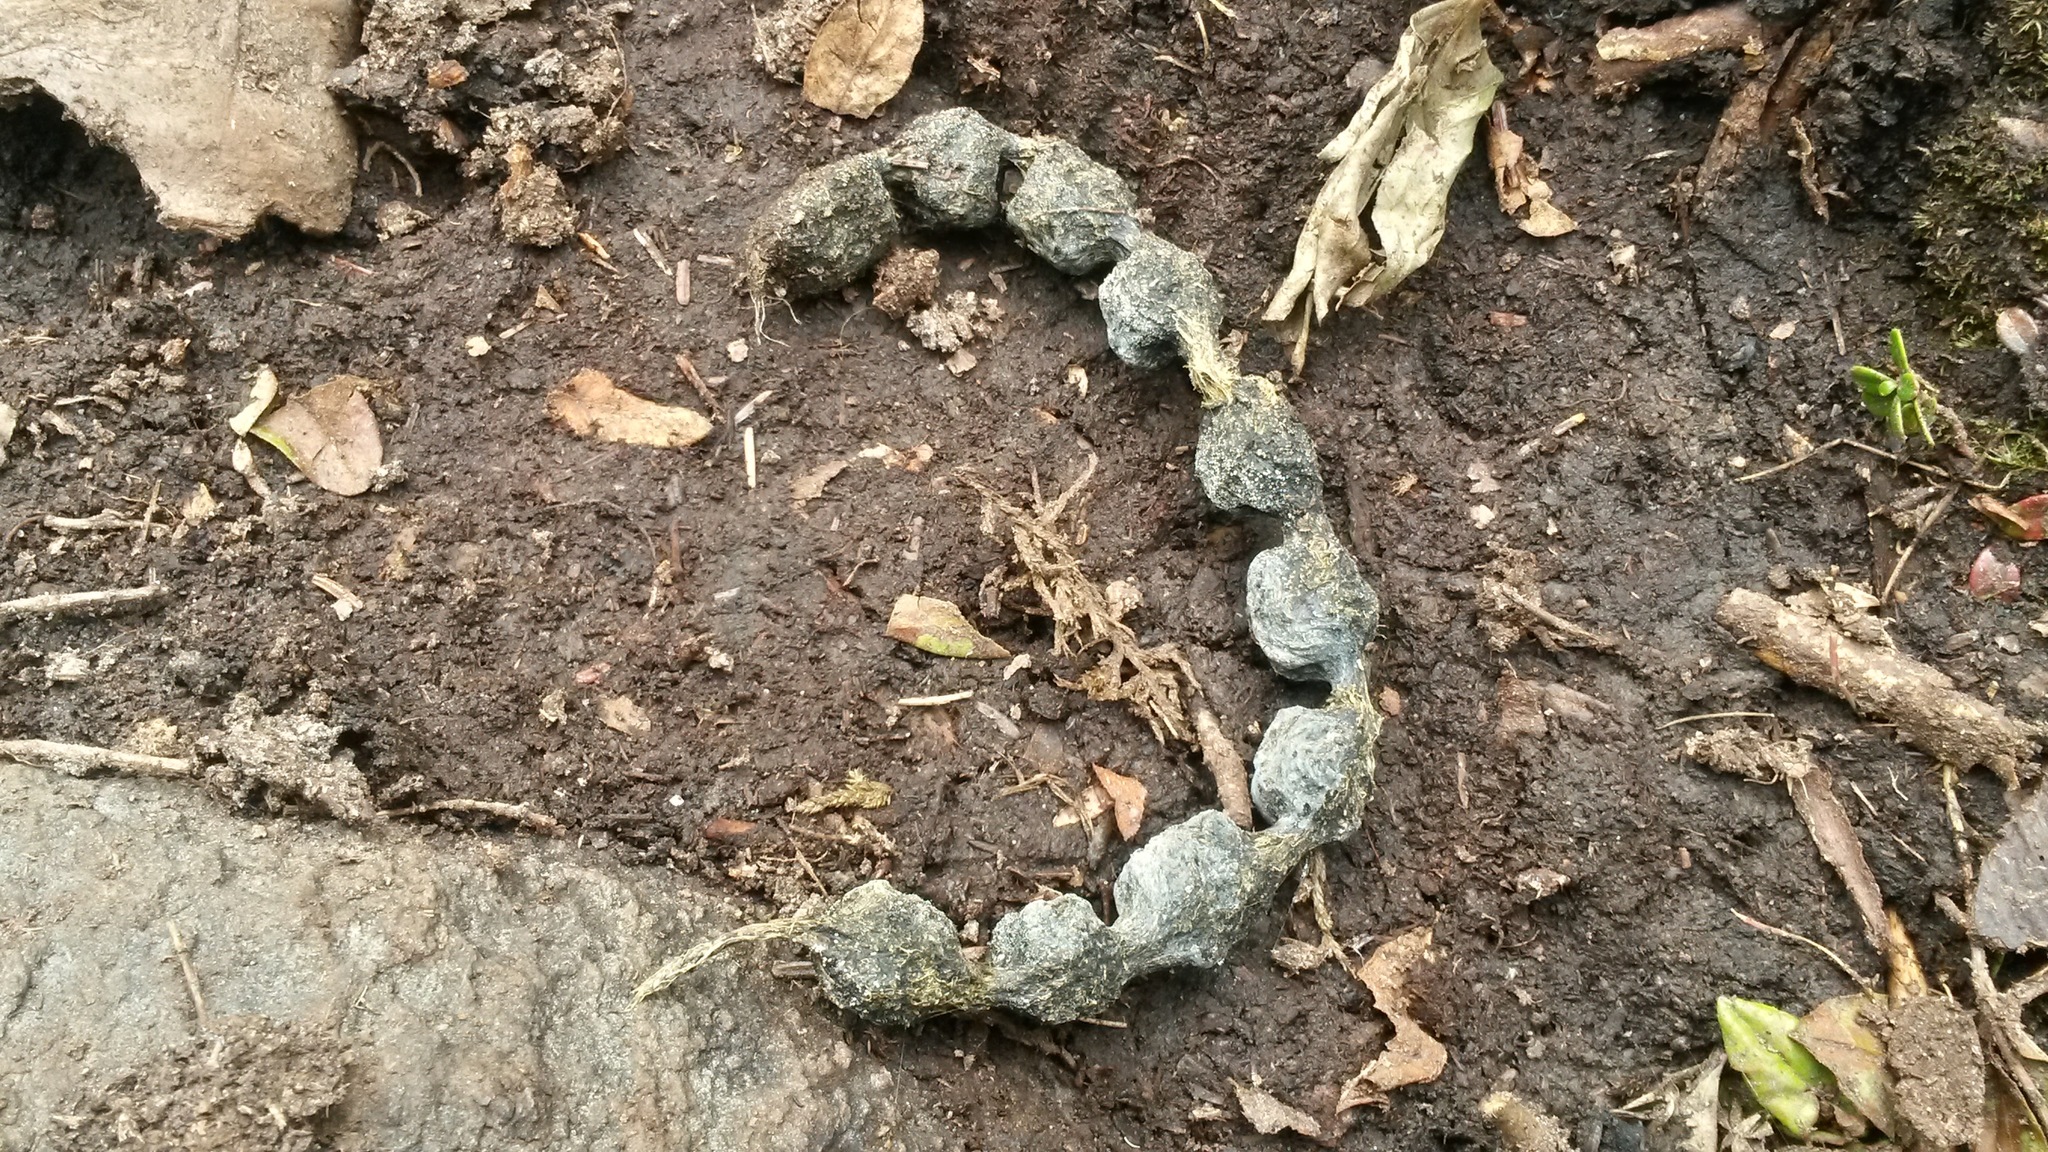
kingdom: Animalia
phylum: Chordata
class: Mammalia
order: Rodentia
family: Erethizontidae
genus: Erethizon
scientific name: Erethizon dorsatus
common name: North american porcupine
